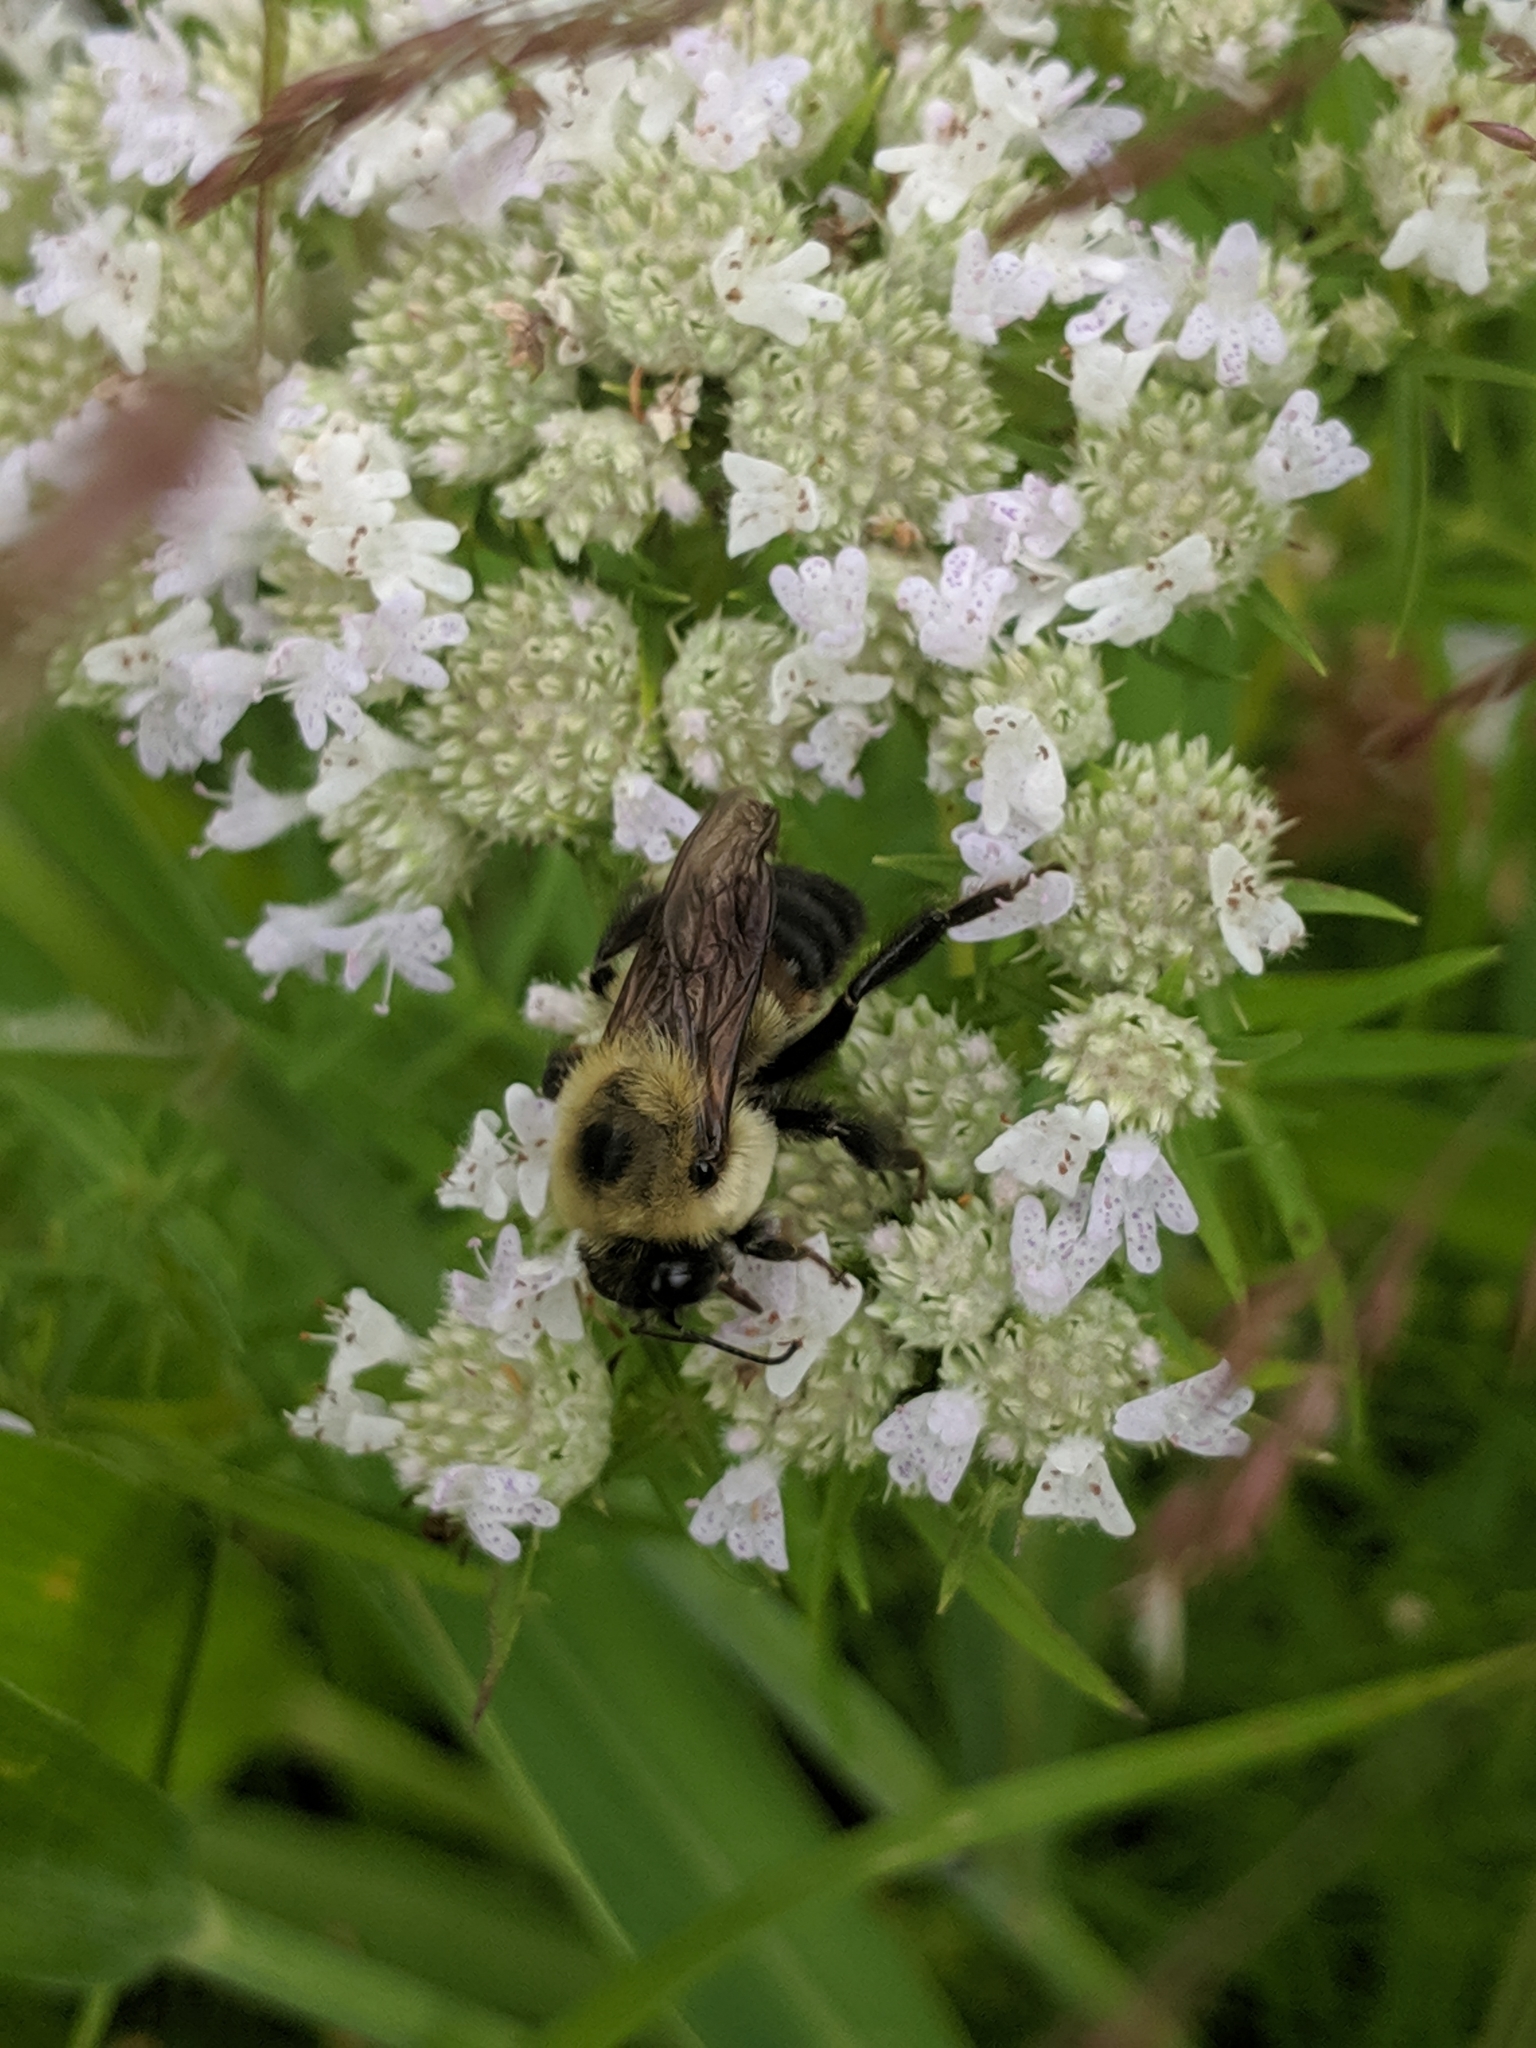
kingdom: Animalia
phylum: Arthropoda
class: Insecta
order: Hymenoptera
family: Apidae
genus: Bombus
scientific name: Bombus griseocollis
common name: Brown-belted bumble bee
